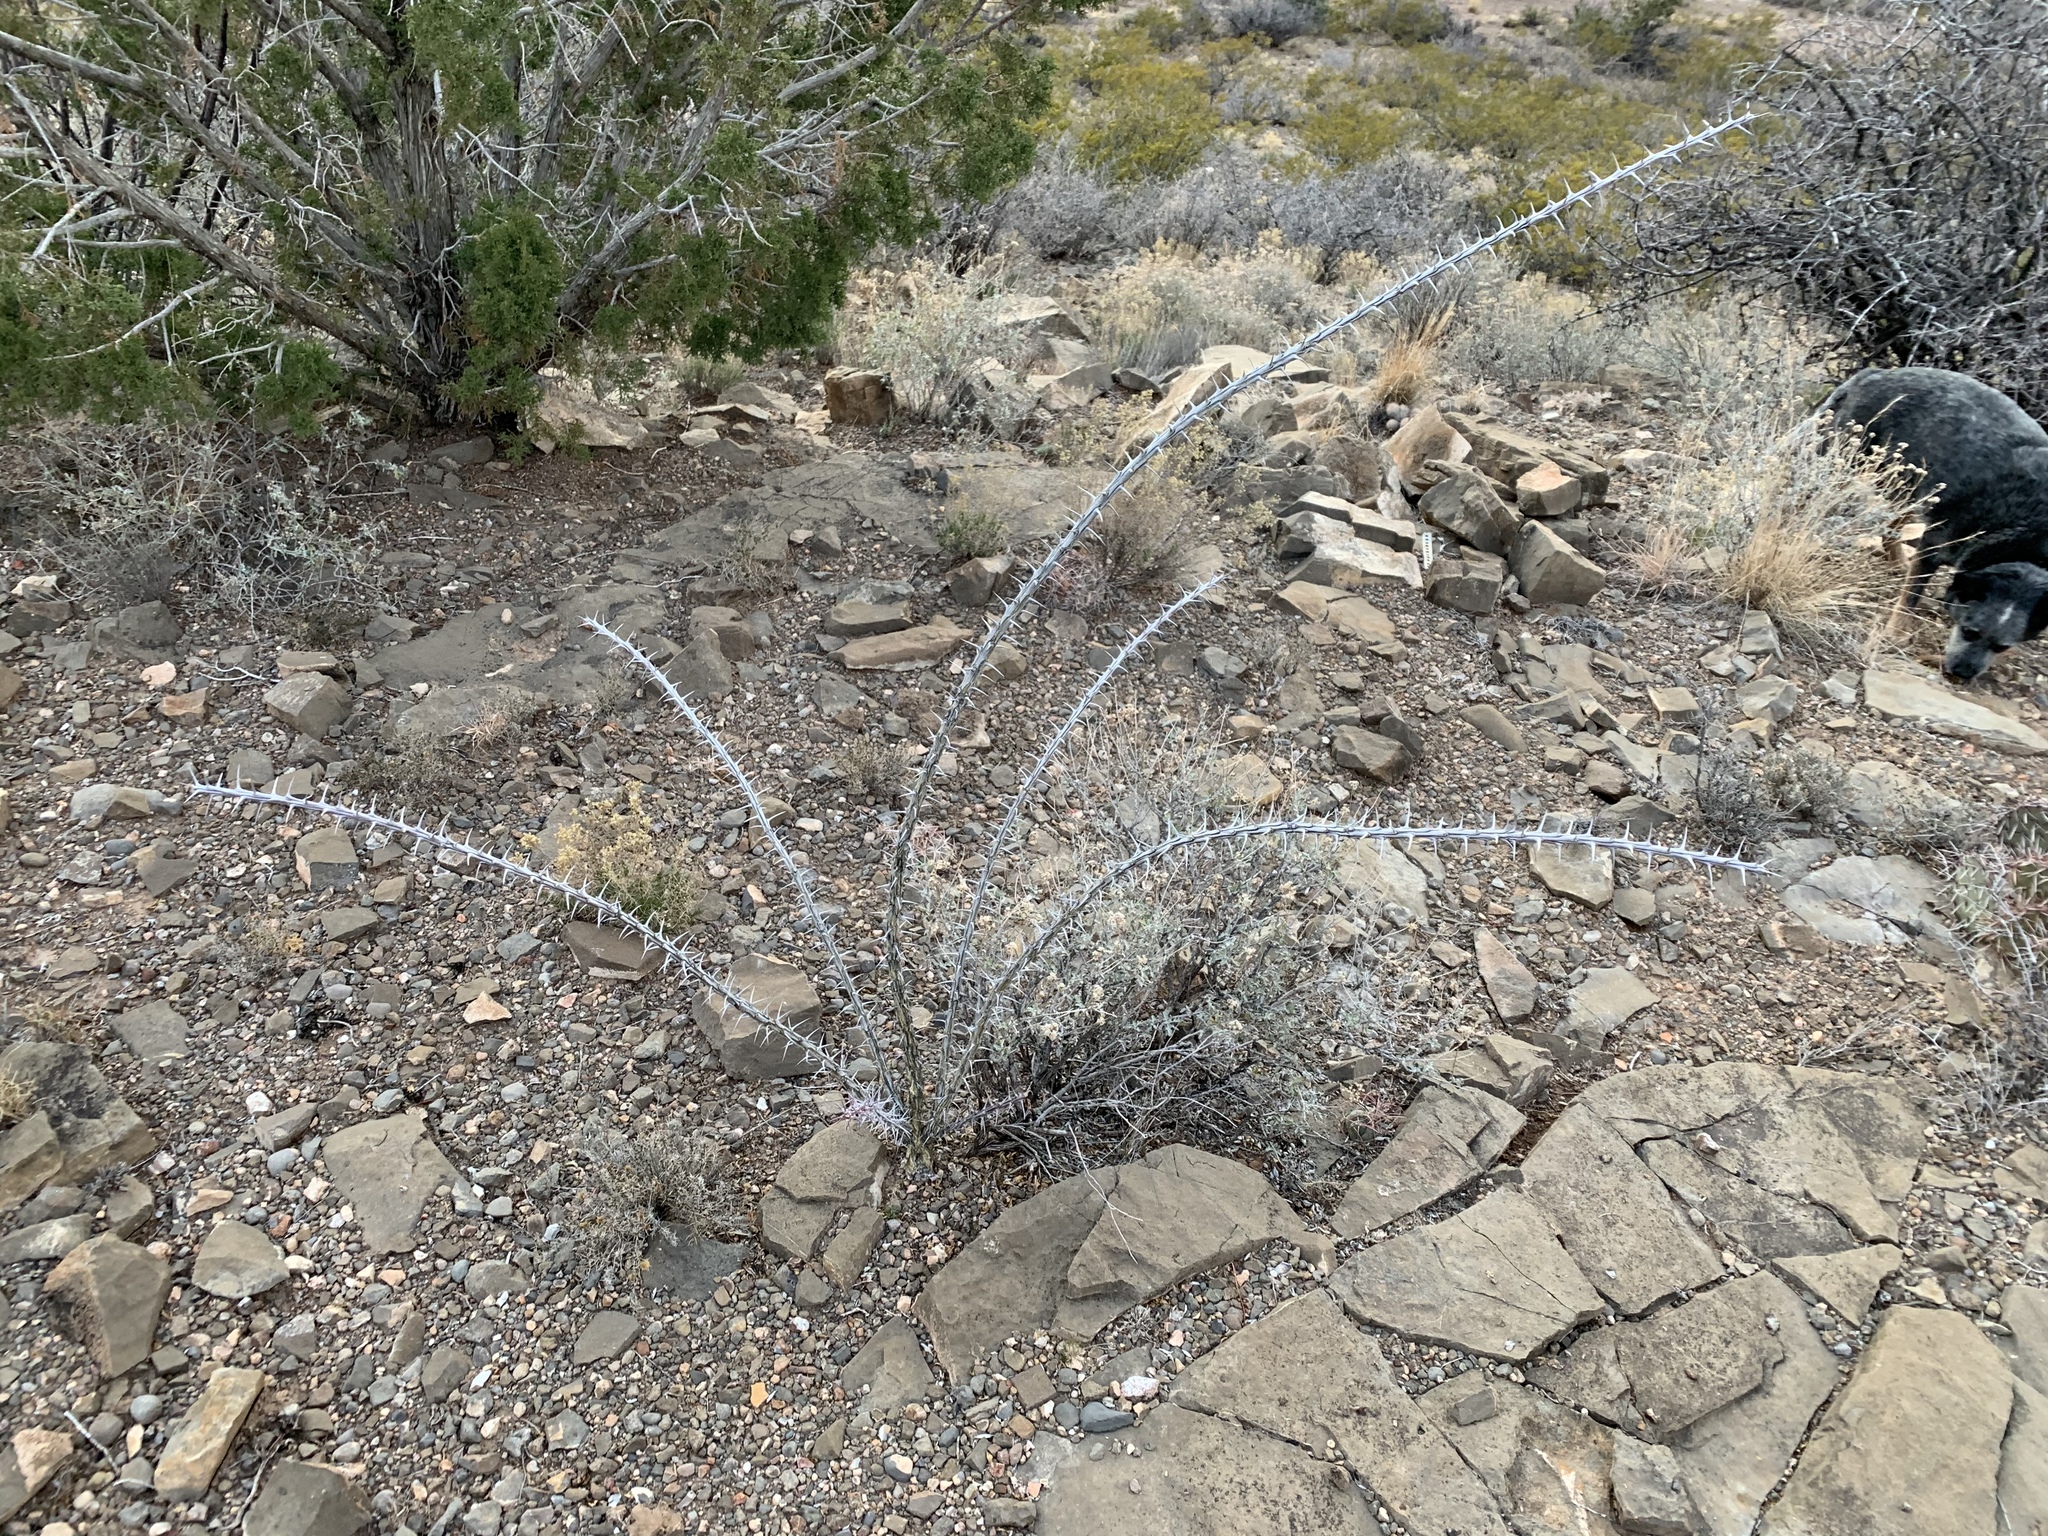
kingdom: Plantae
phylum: Tracheophyta
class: Magnoliopsida
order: Ericales
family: Fouquieriaceae
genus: Fouquieria
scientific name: Fouquieria splendens
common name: Vine-cactus
